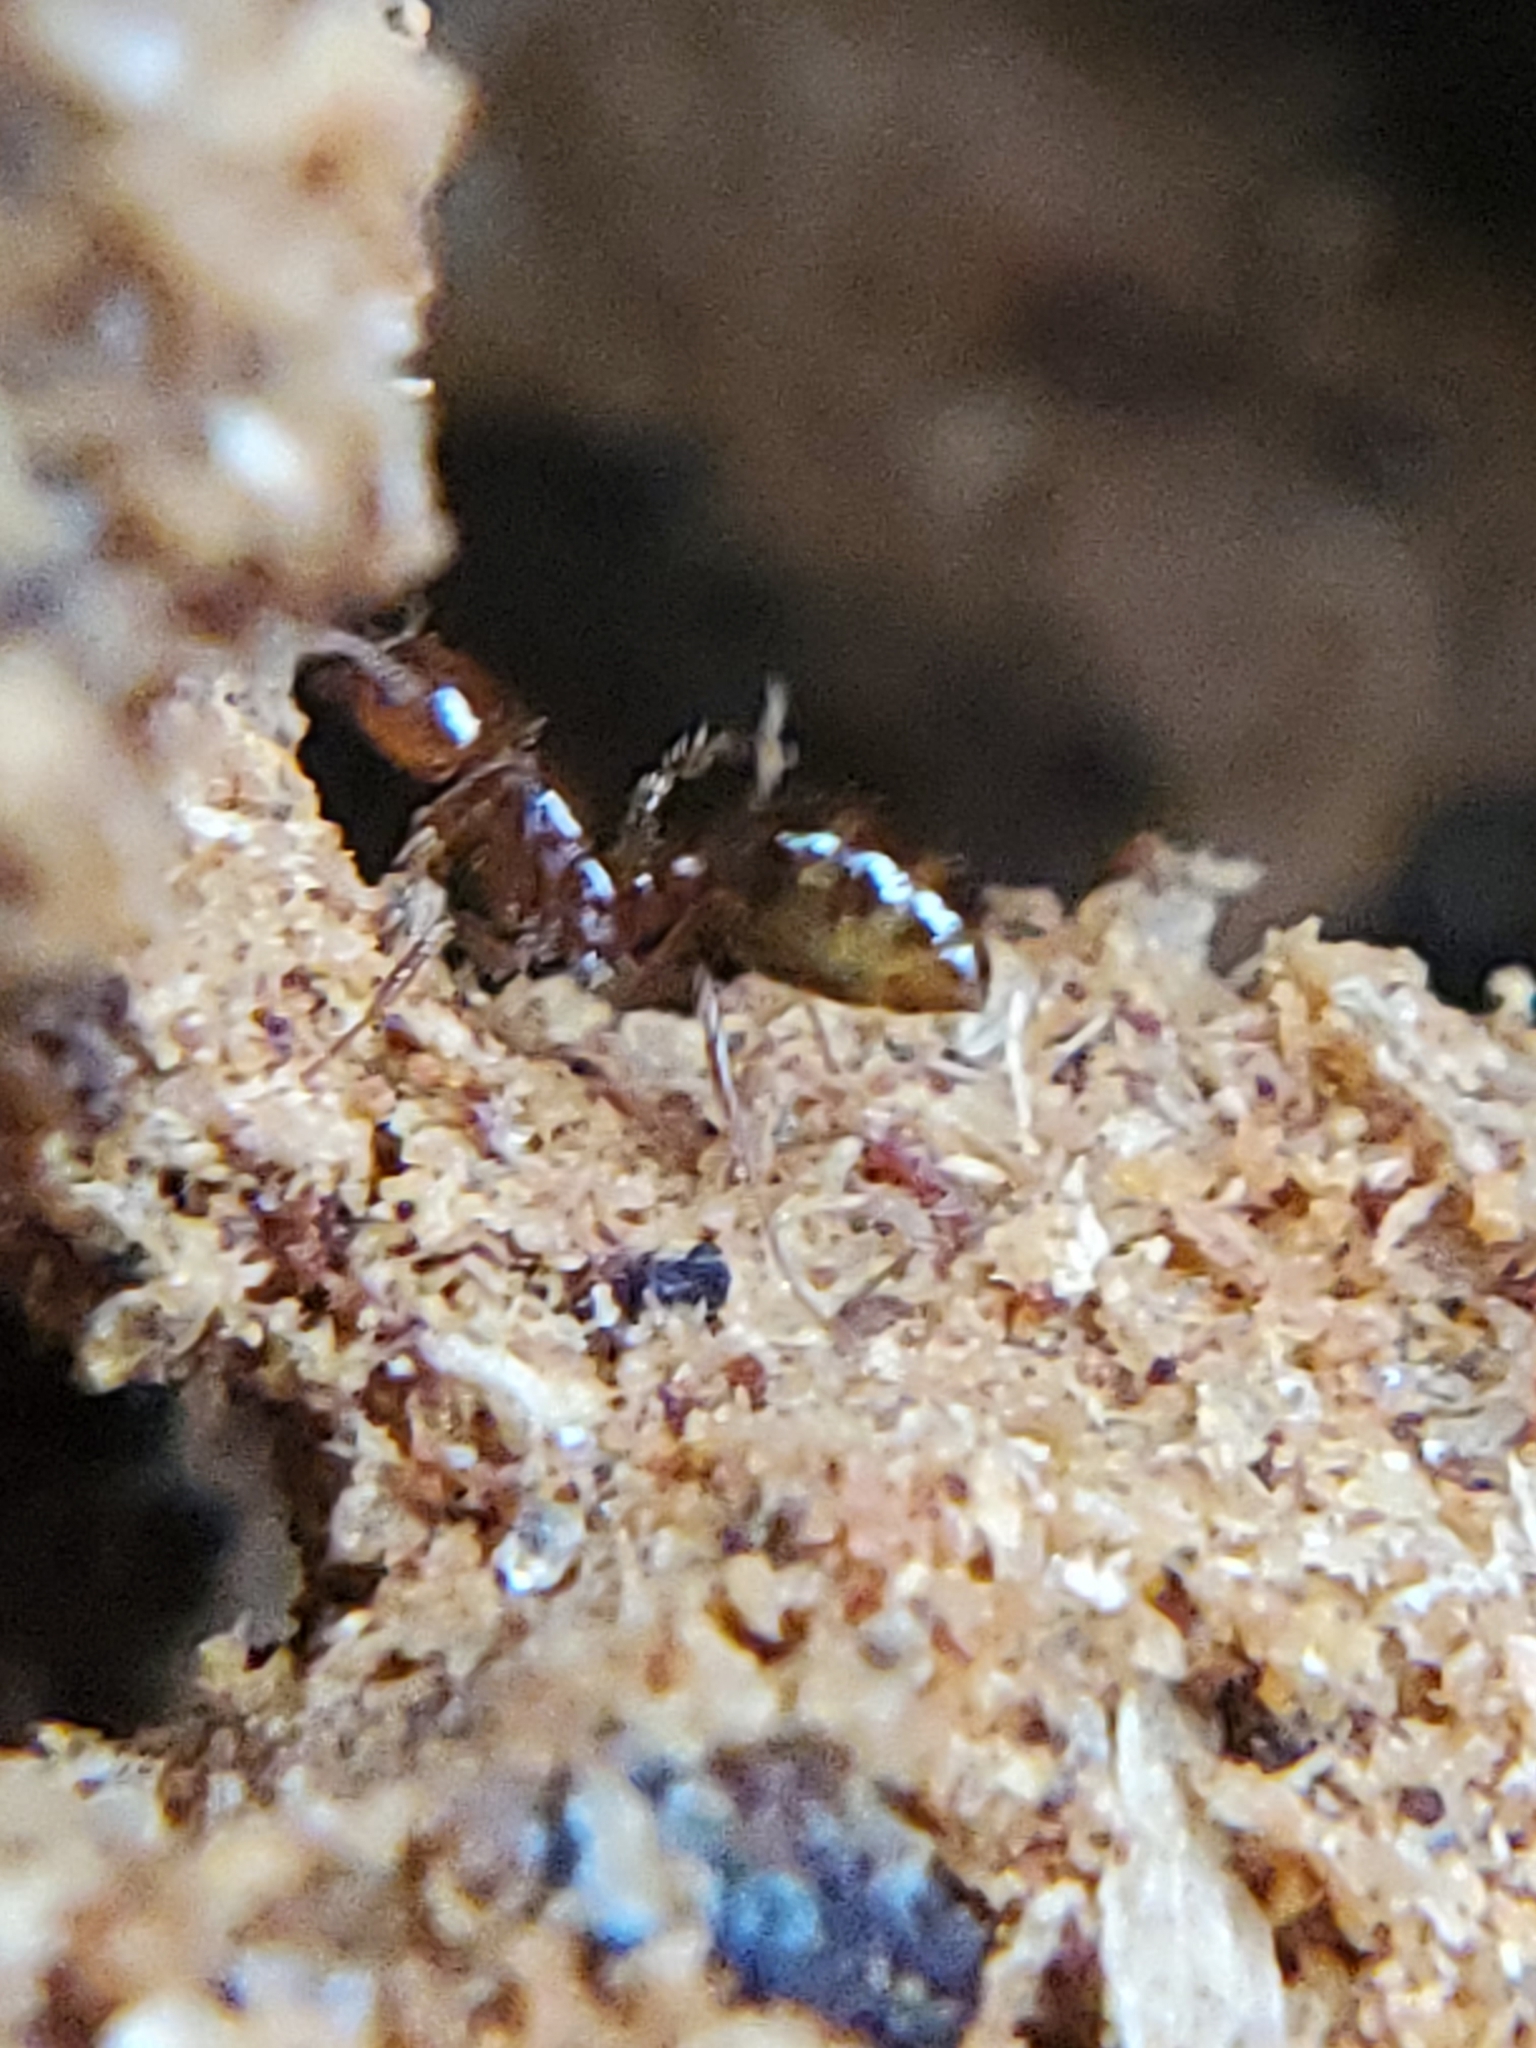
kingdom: Animalia
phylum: Arthropoda
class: Insecta
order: Hymenoptera
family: Formicidae
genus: Solenopsis
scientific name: Solenopsis invicta
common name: Red imported fire ant
